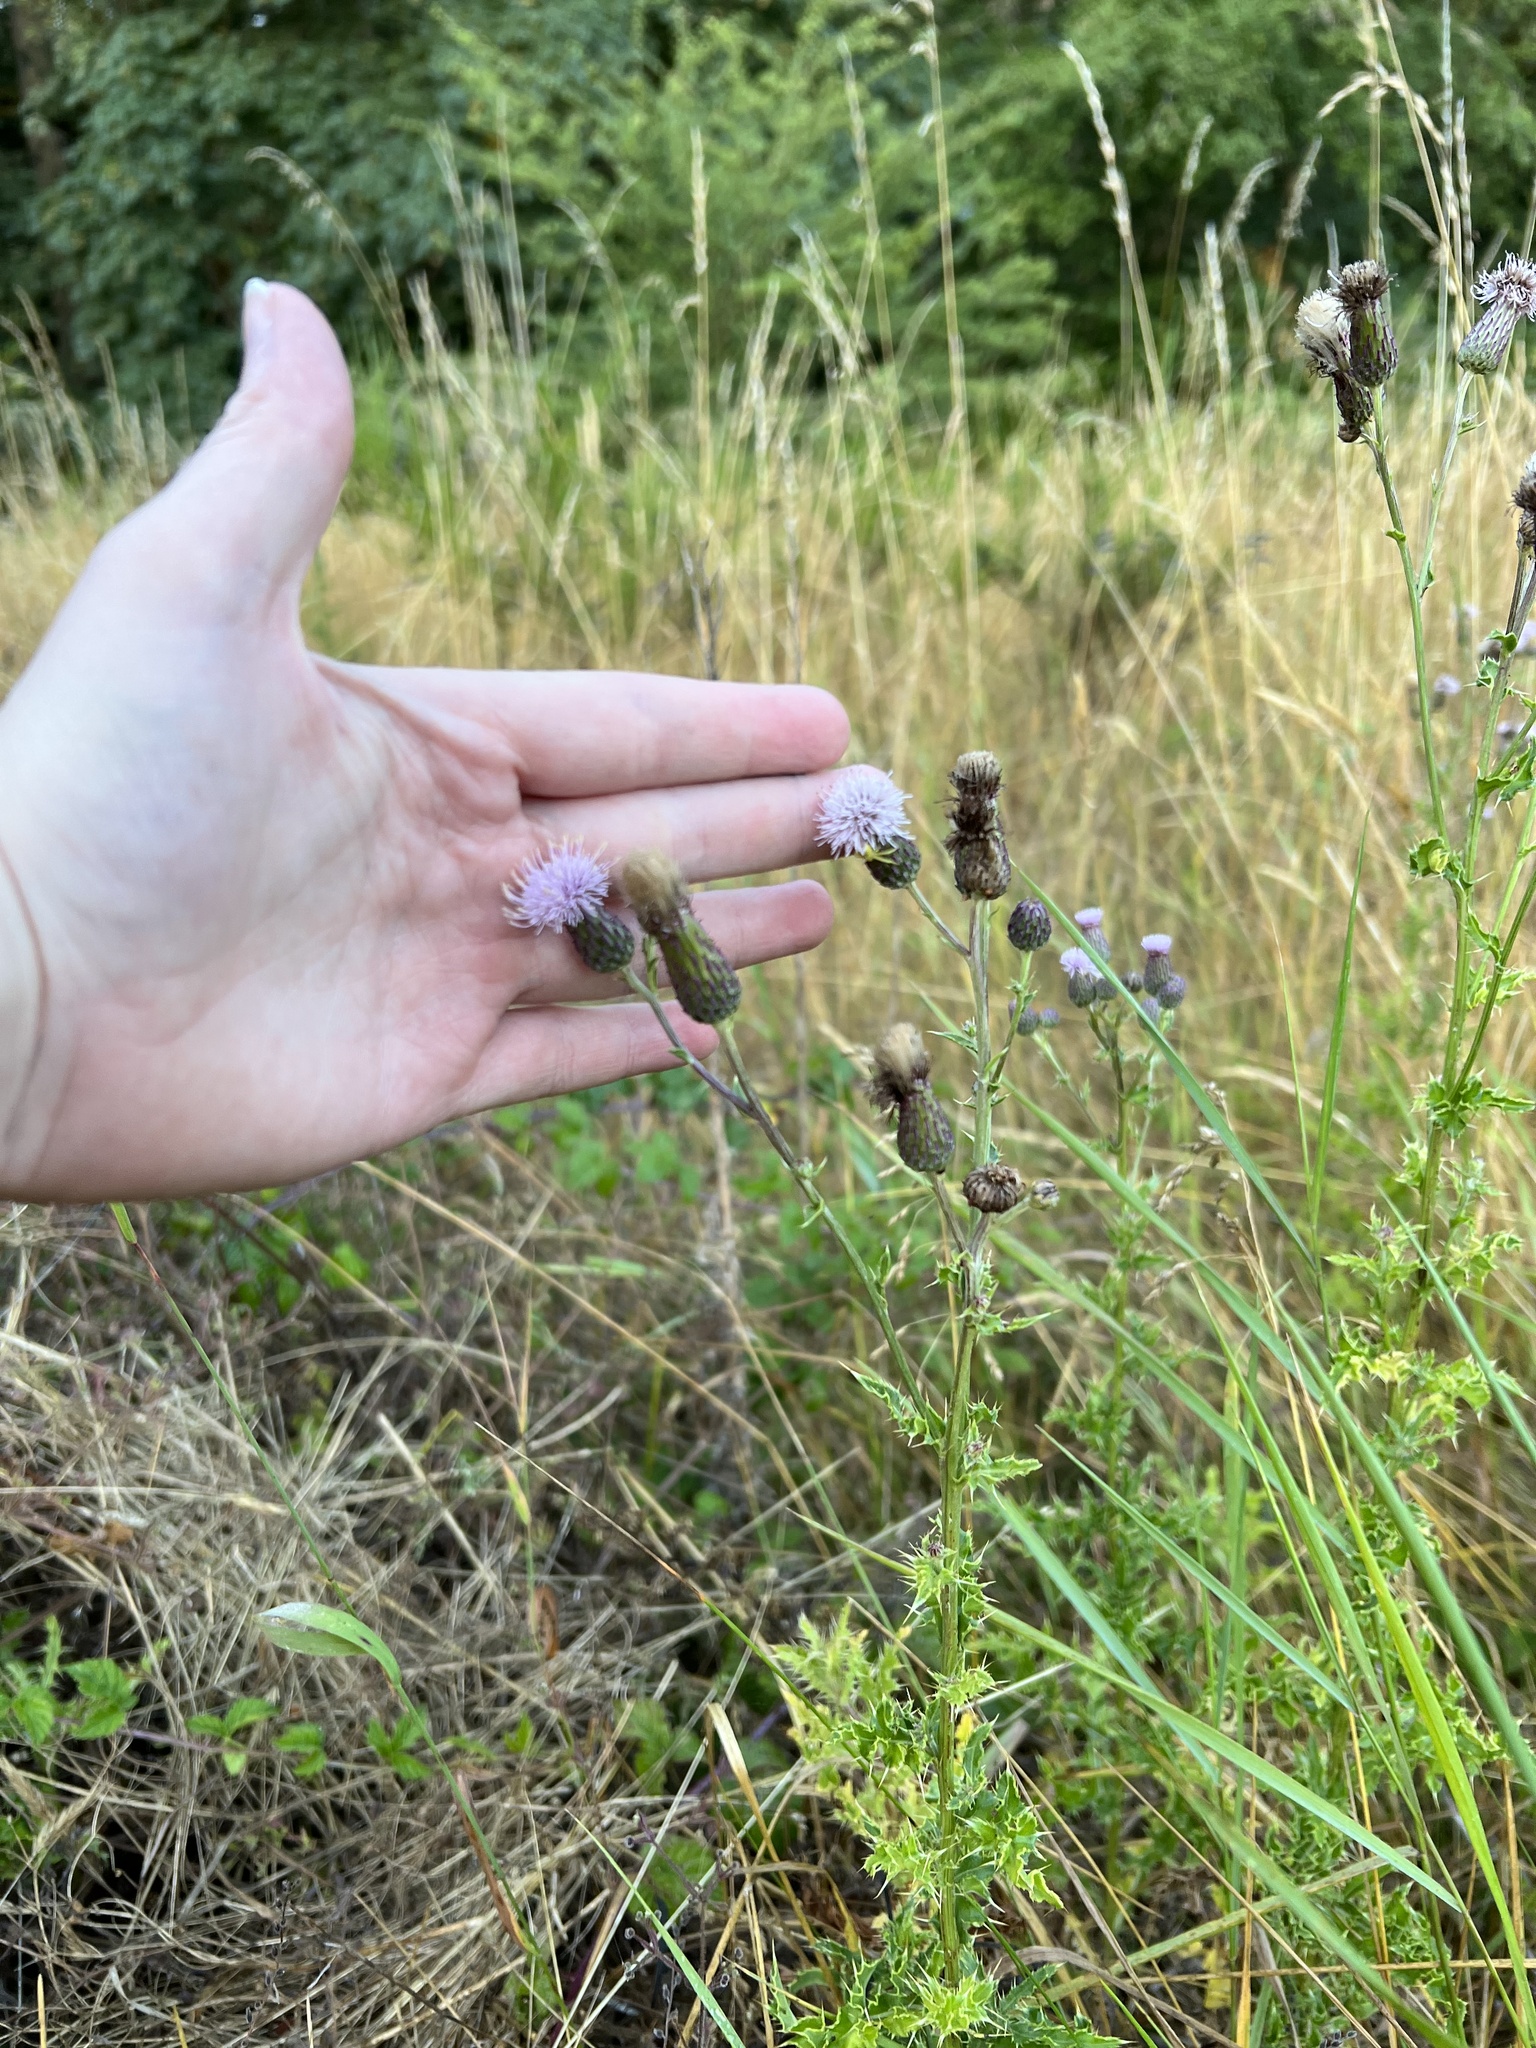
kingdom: Plantae
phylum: Tracheophyta
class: Magnoliopsida
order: Asterales
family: Asteraceae
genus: Cirsium
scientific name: Cirsium arvense
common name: Creeping thistle
